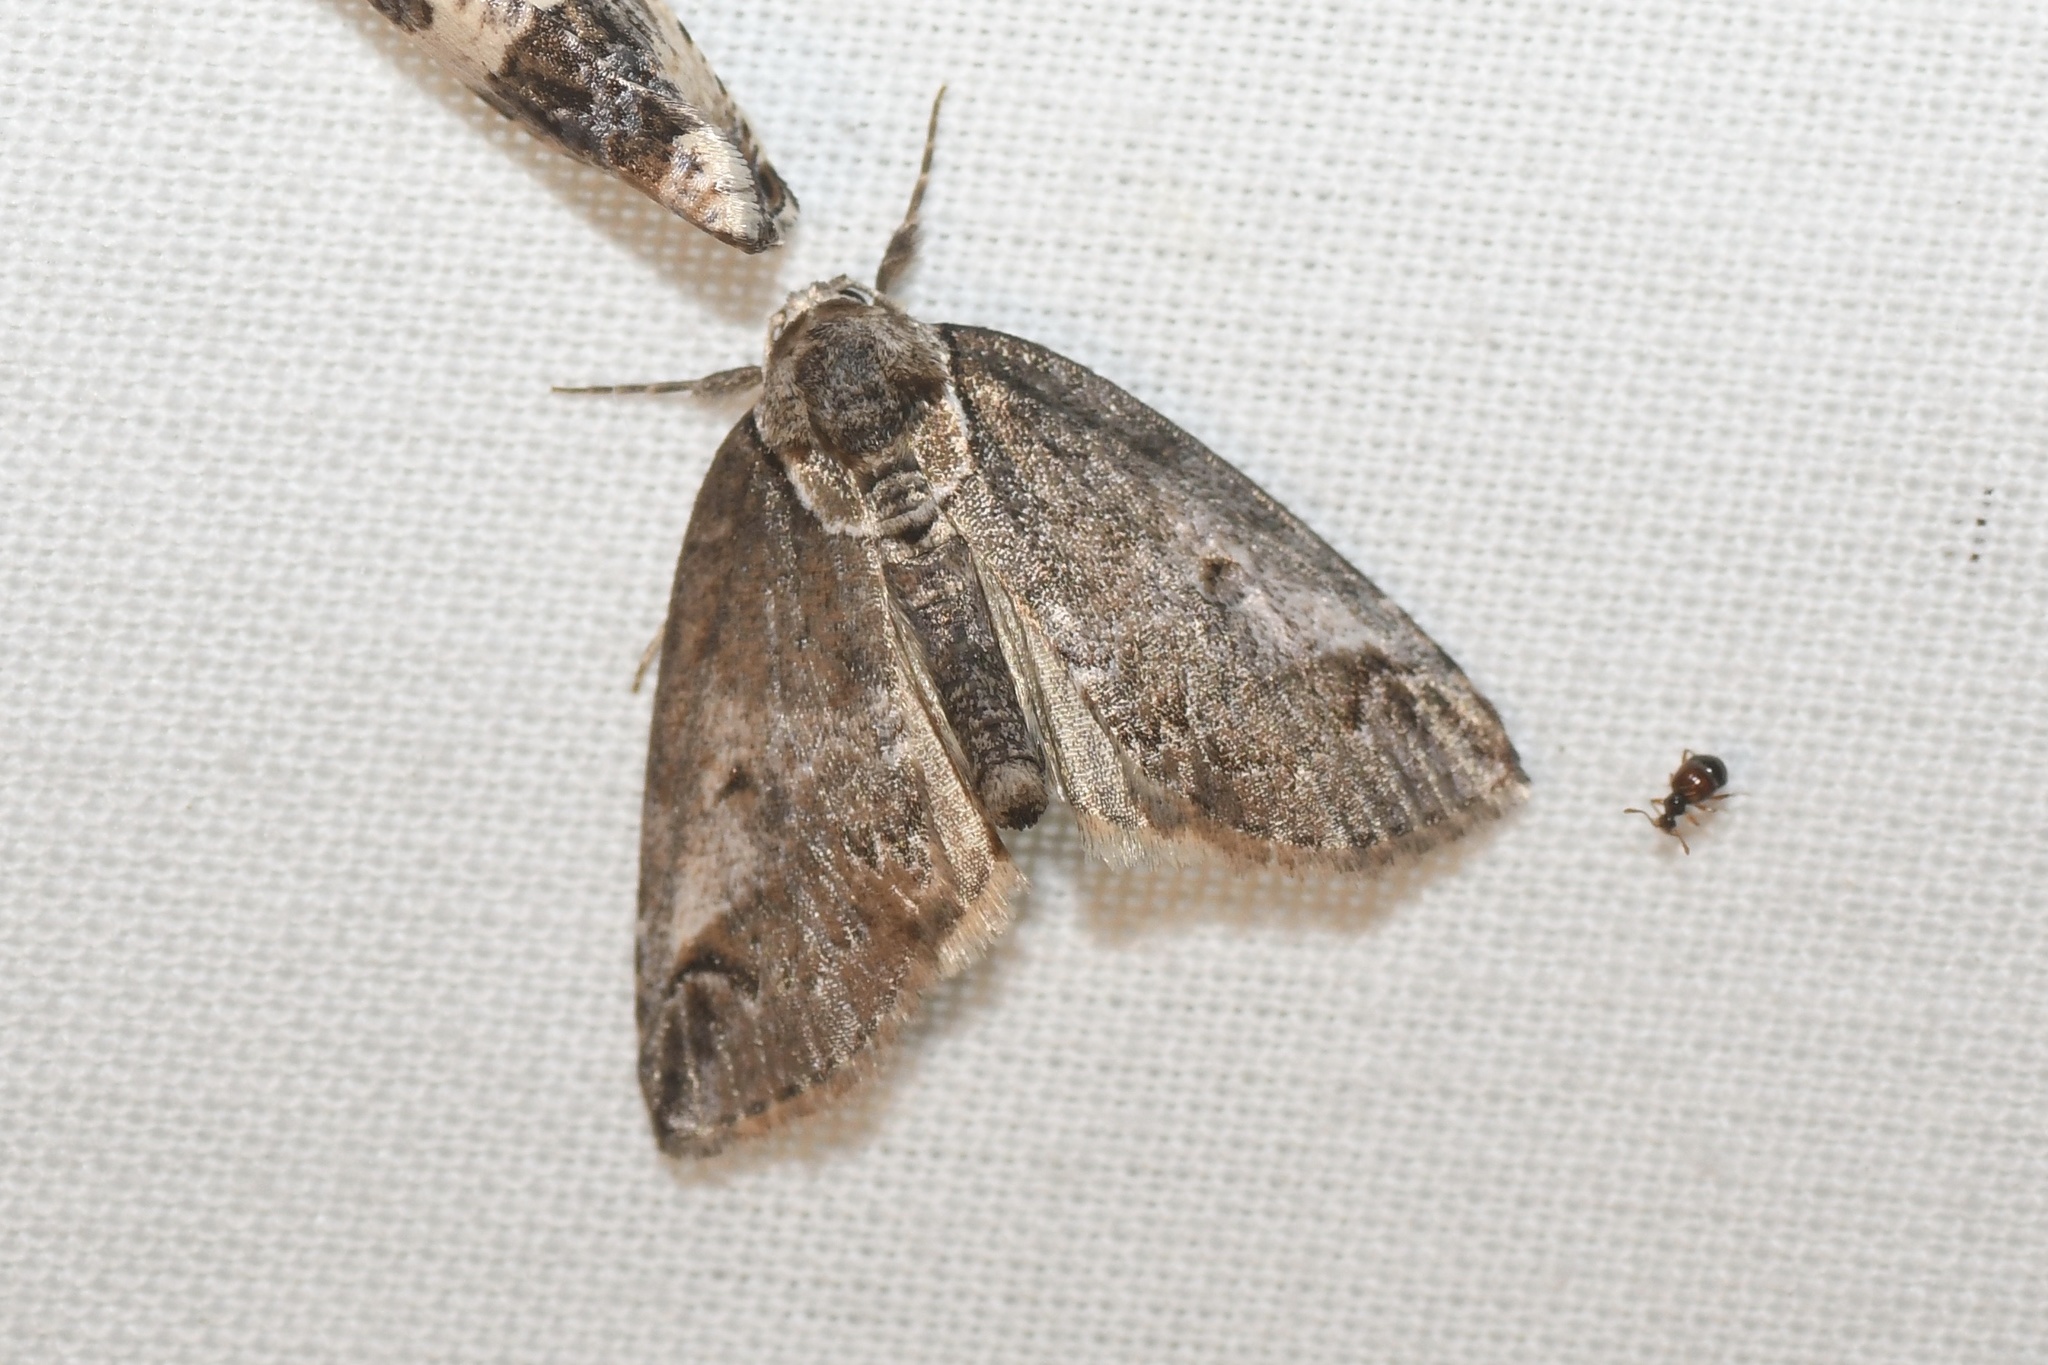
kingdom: Animalia
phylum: Arthropoda
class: Insecta
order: Lepidoptera
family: Nolidae
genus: Baileya
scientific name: Baileya ophthalmica
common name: Eyed baileya moth
